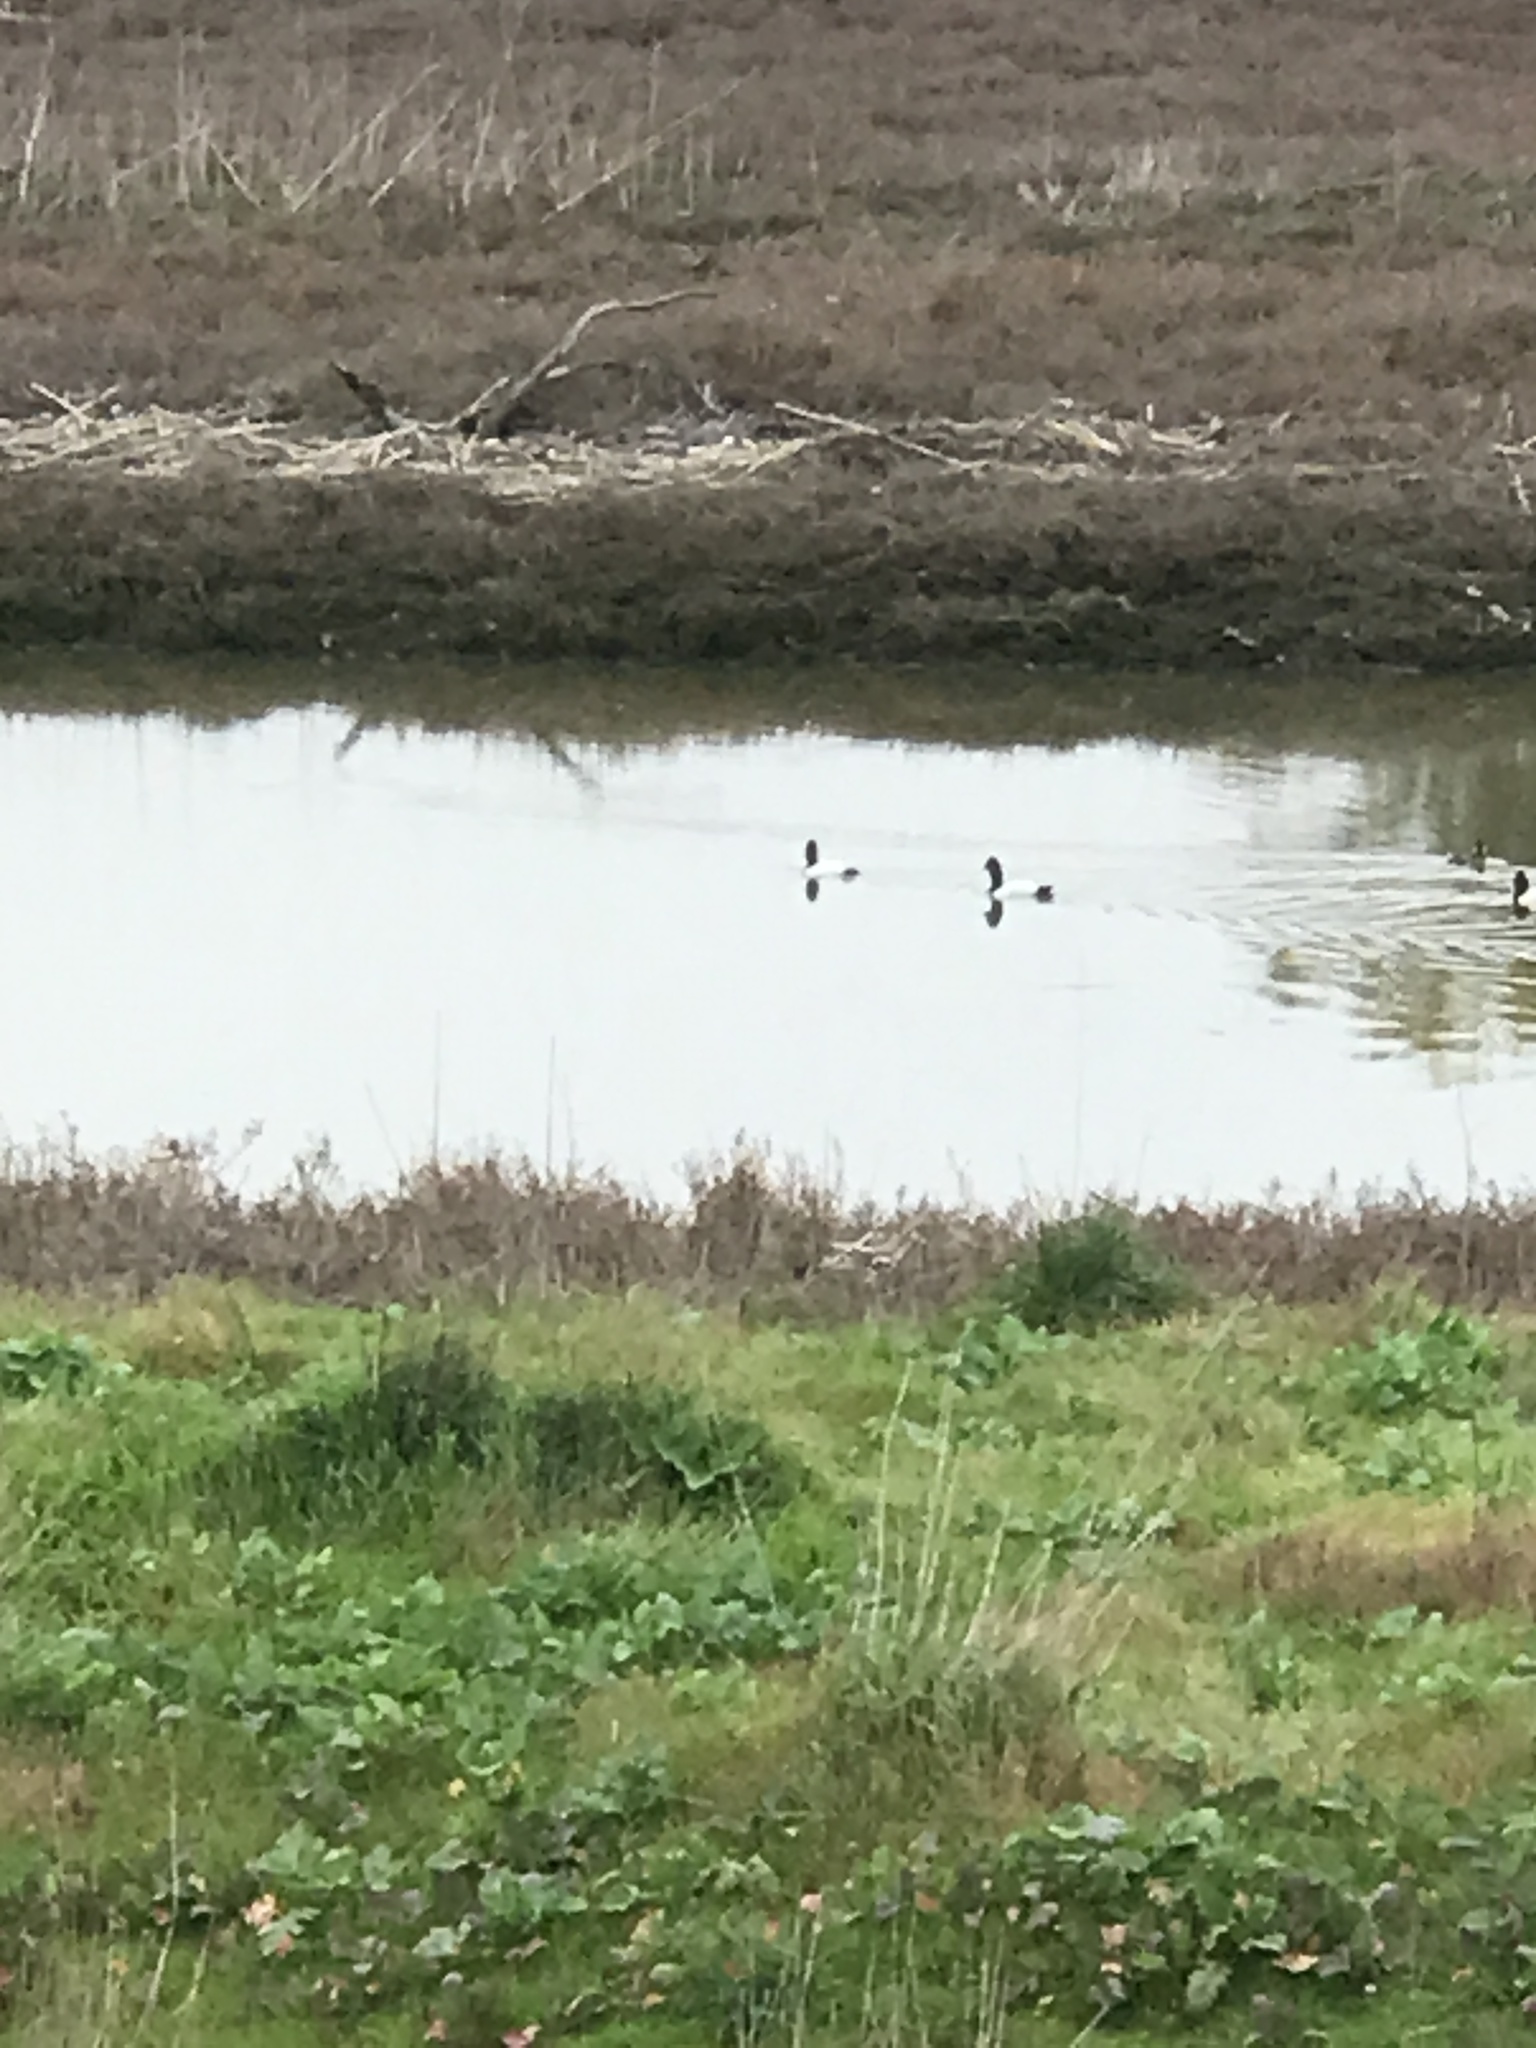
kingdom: Animalia
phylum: Chordata
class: Aves
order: Anseriformes
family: Anatidae
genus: Aythya
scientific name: Aythya valisineria
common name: Canvasback
